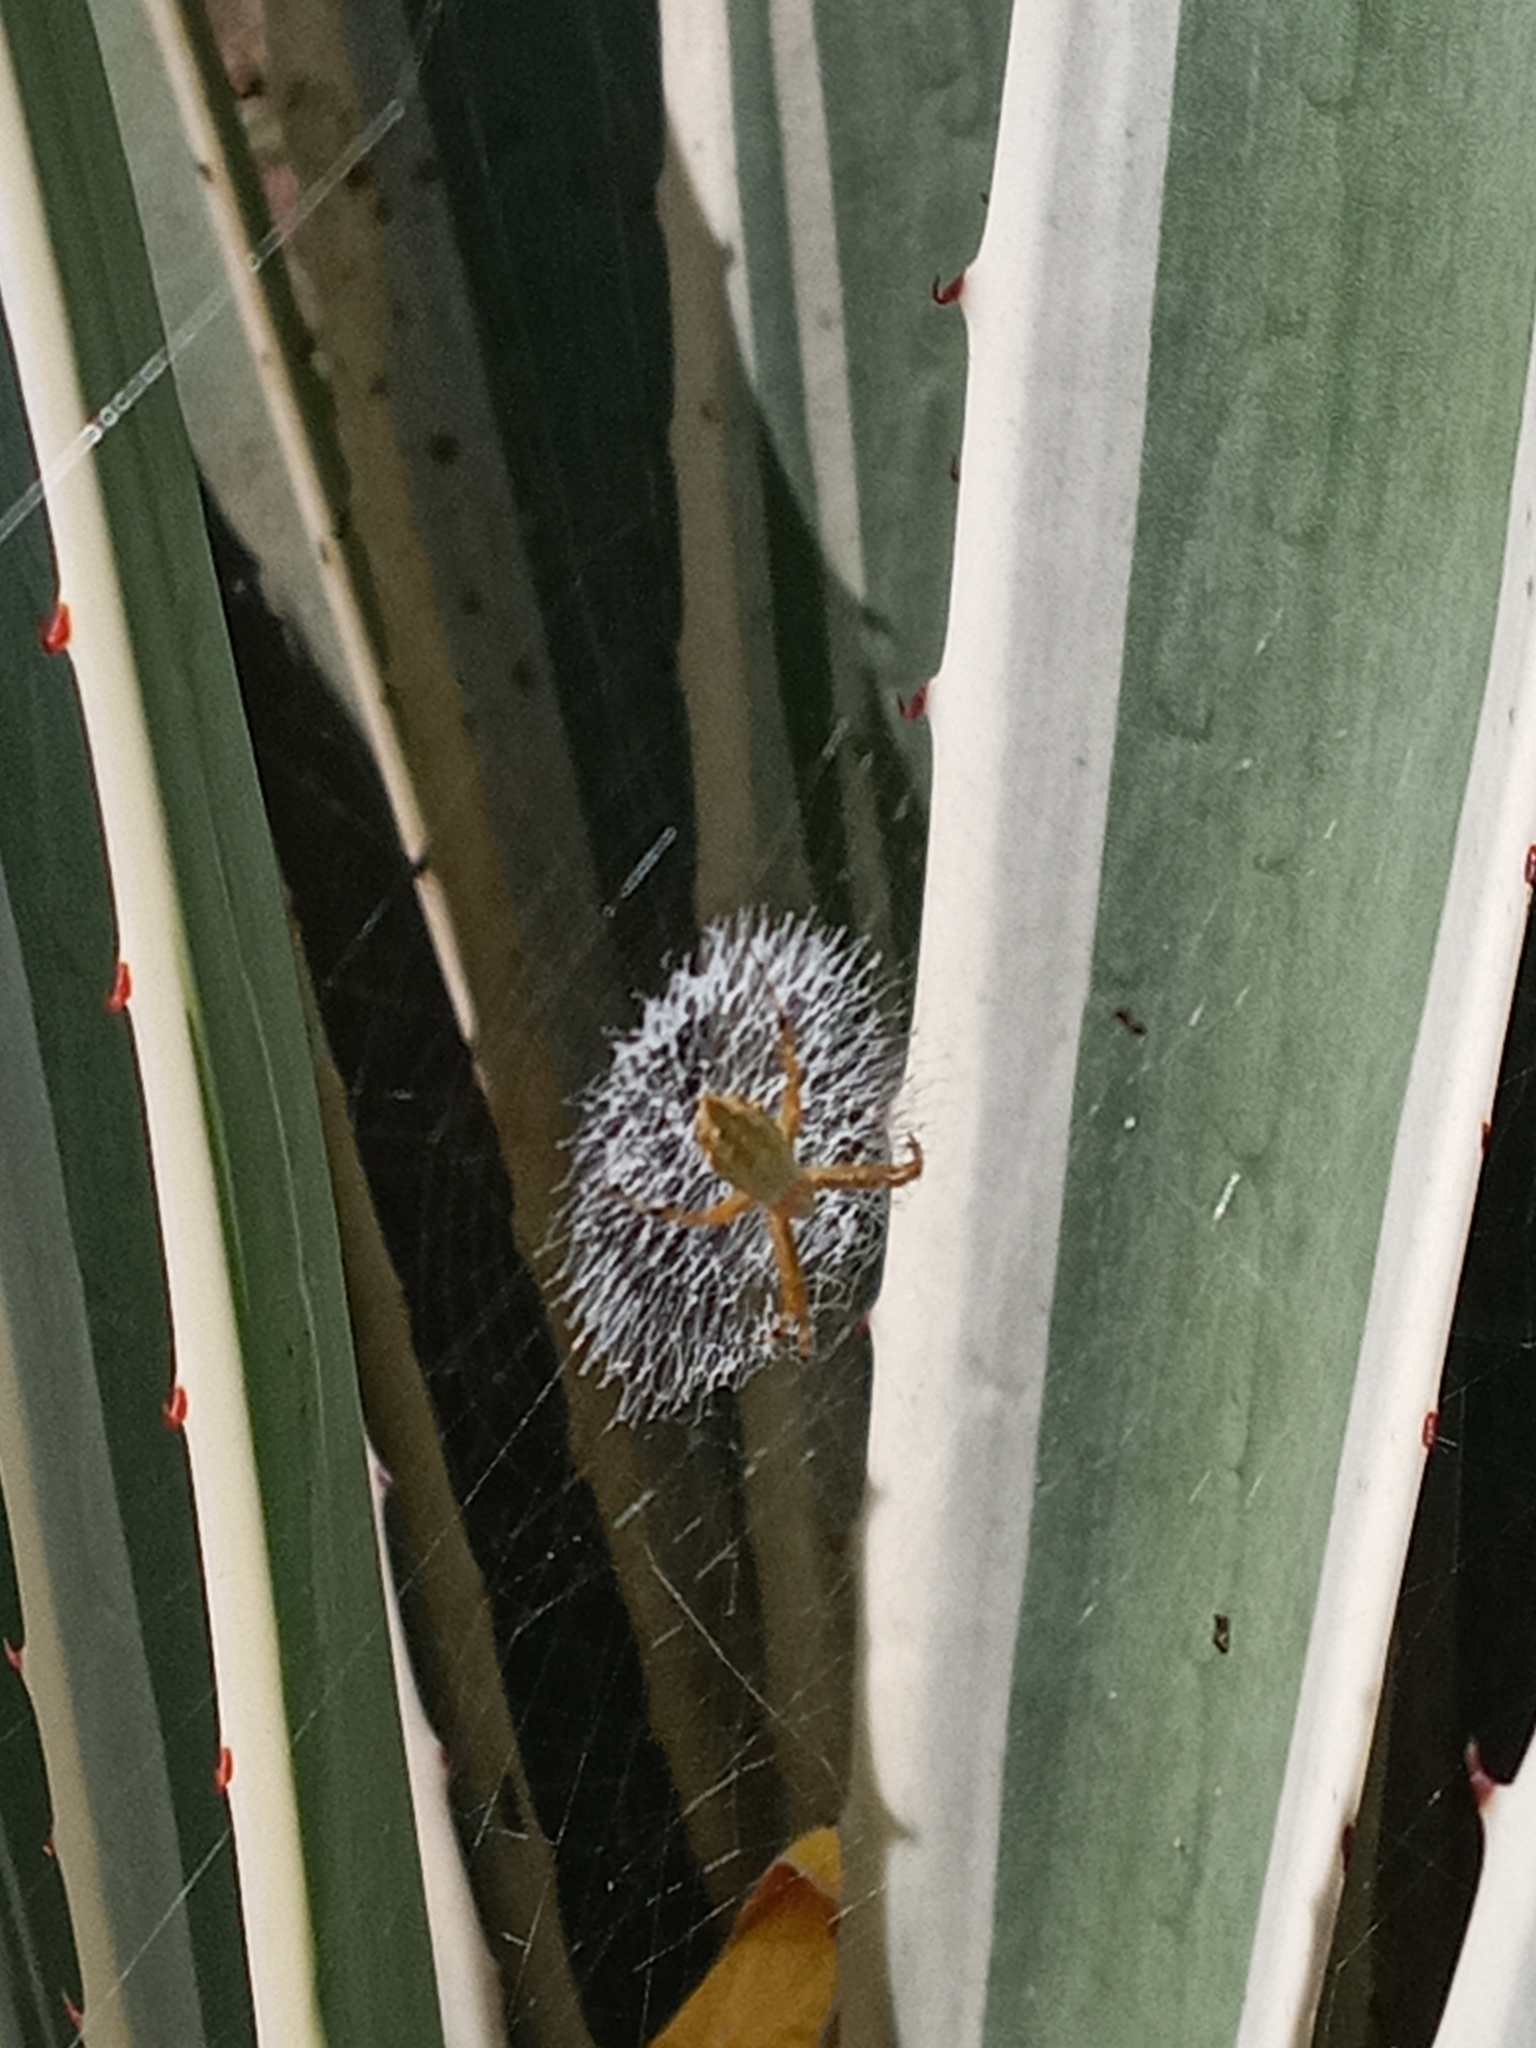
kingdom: Animalia
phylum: Arthropoda
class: Arachnida
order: Araneae
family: Araneidae
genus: Argiope
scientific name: Argiope argentata
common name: Orb weavers
